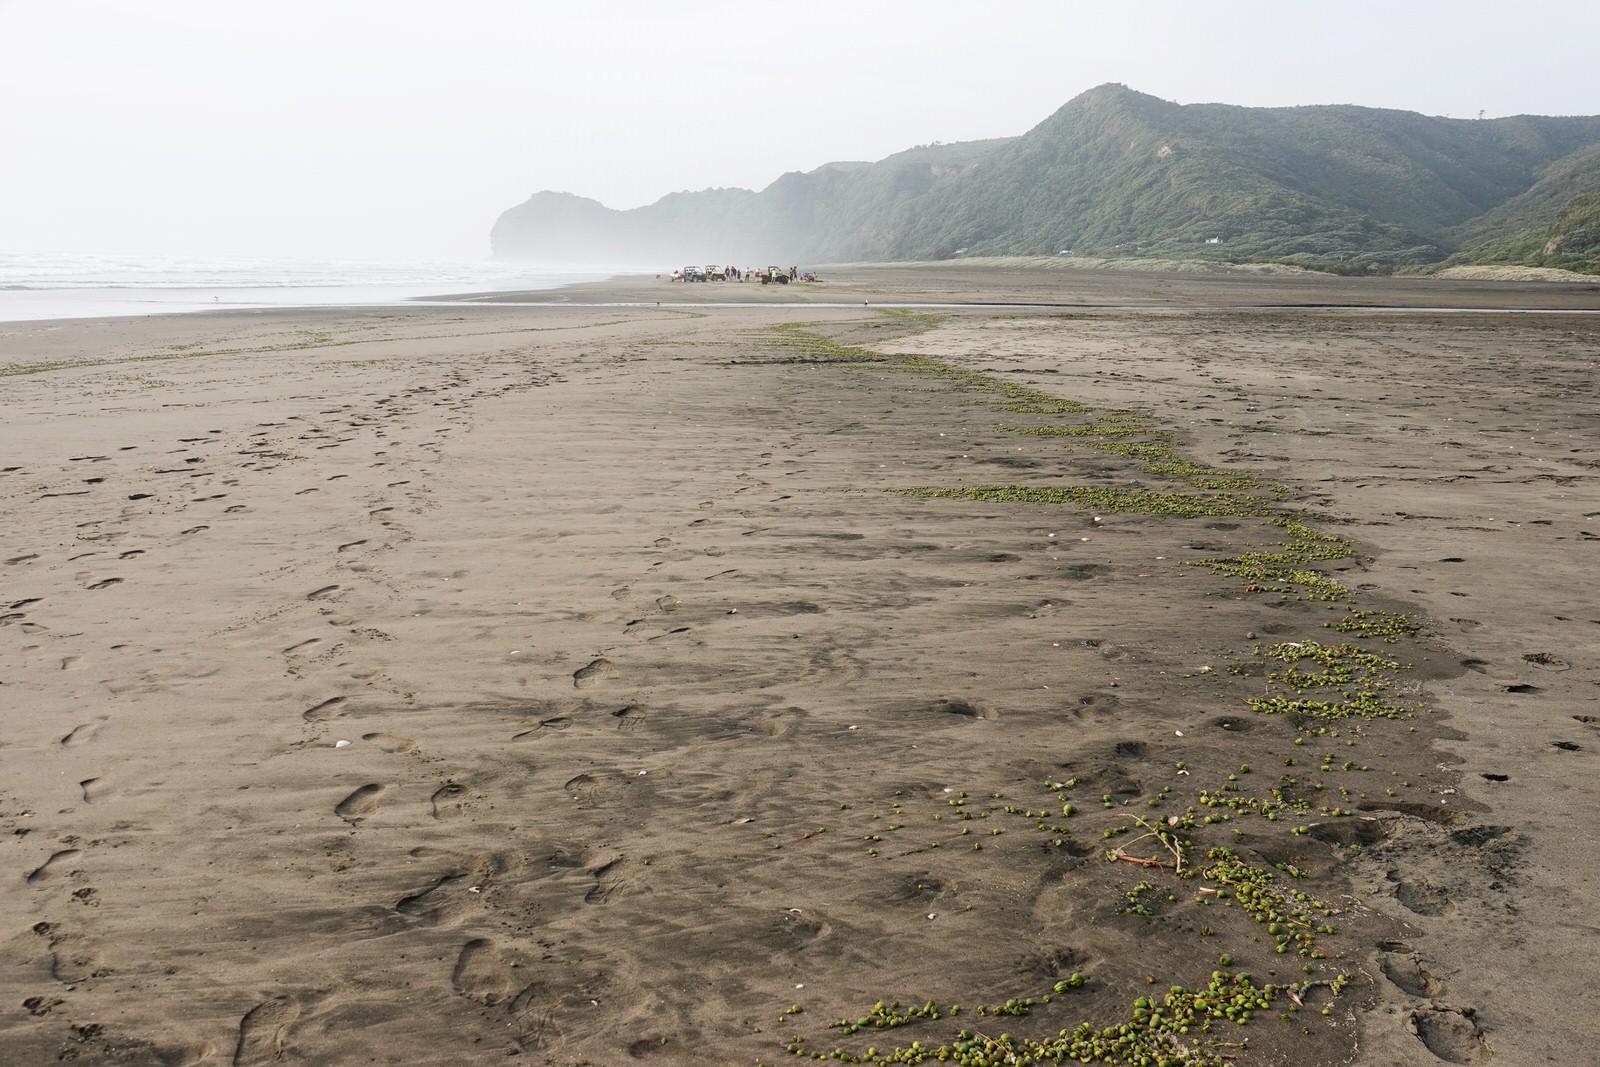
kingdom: Plantae
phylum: Tracheophyta
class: Magnoliopsida
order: Lamiales
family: Acanthaceae
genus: Avicennia
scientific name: Avicennia marina
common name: Gray mangrove
